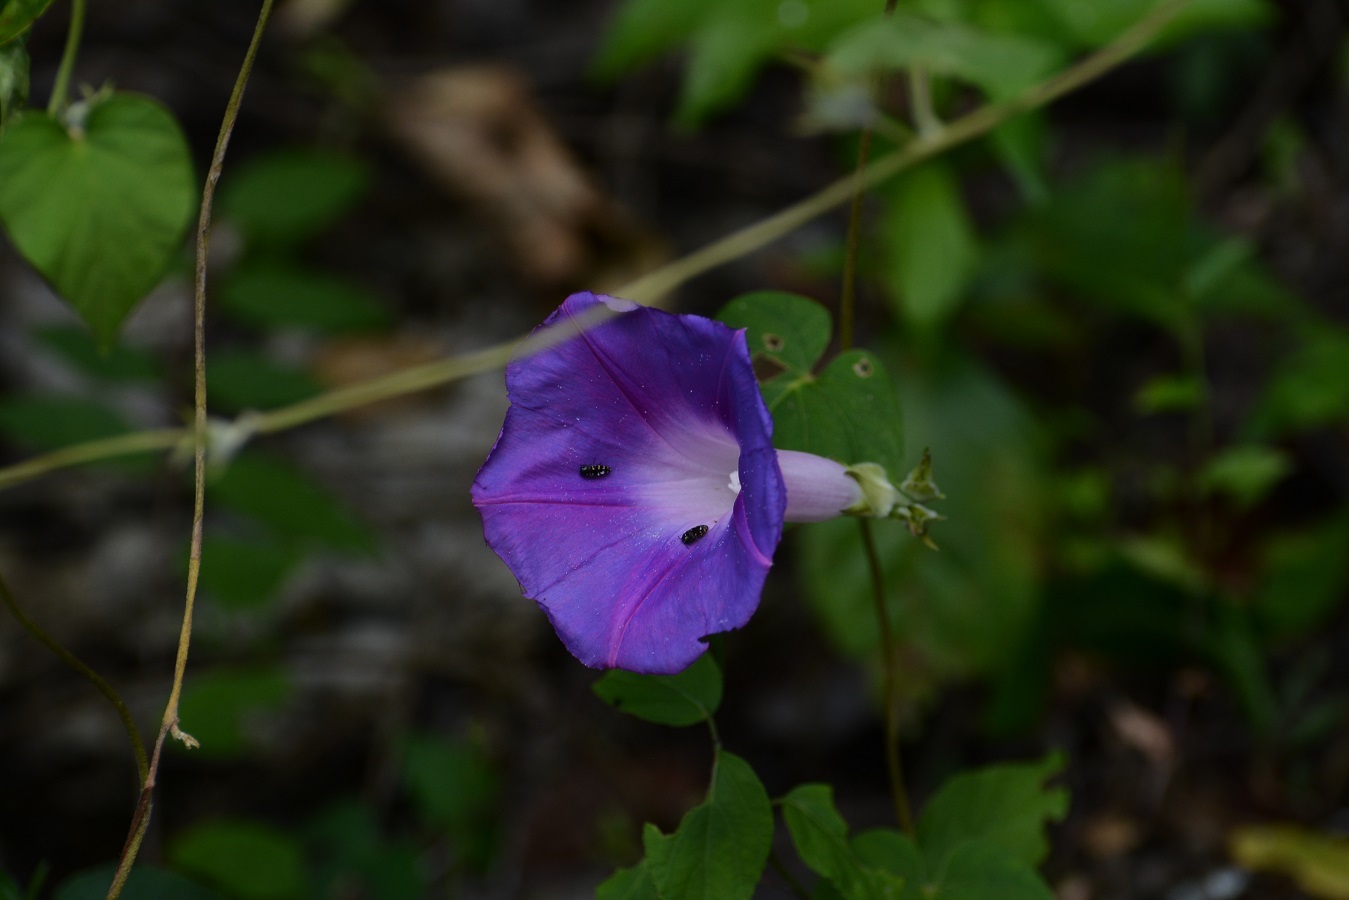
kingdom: Plantae
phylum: Tracheophyta
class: Magnoliopsida
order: Solanales
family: Convolvulaceae
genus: Ipomoea
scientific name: Ipomoea indica
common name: Blue dawnflower
